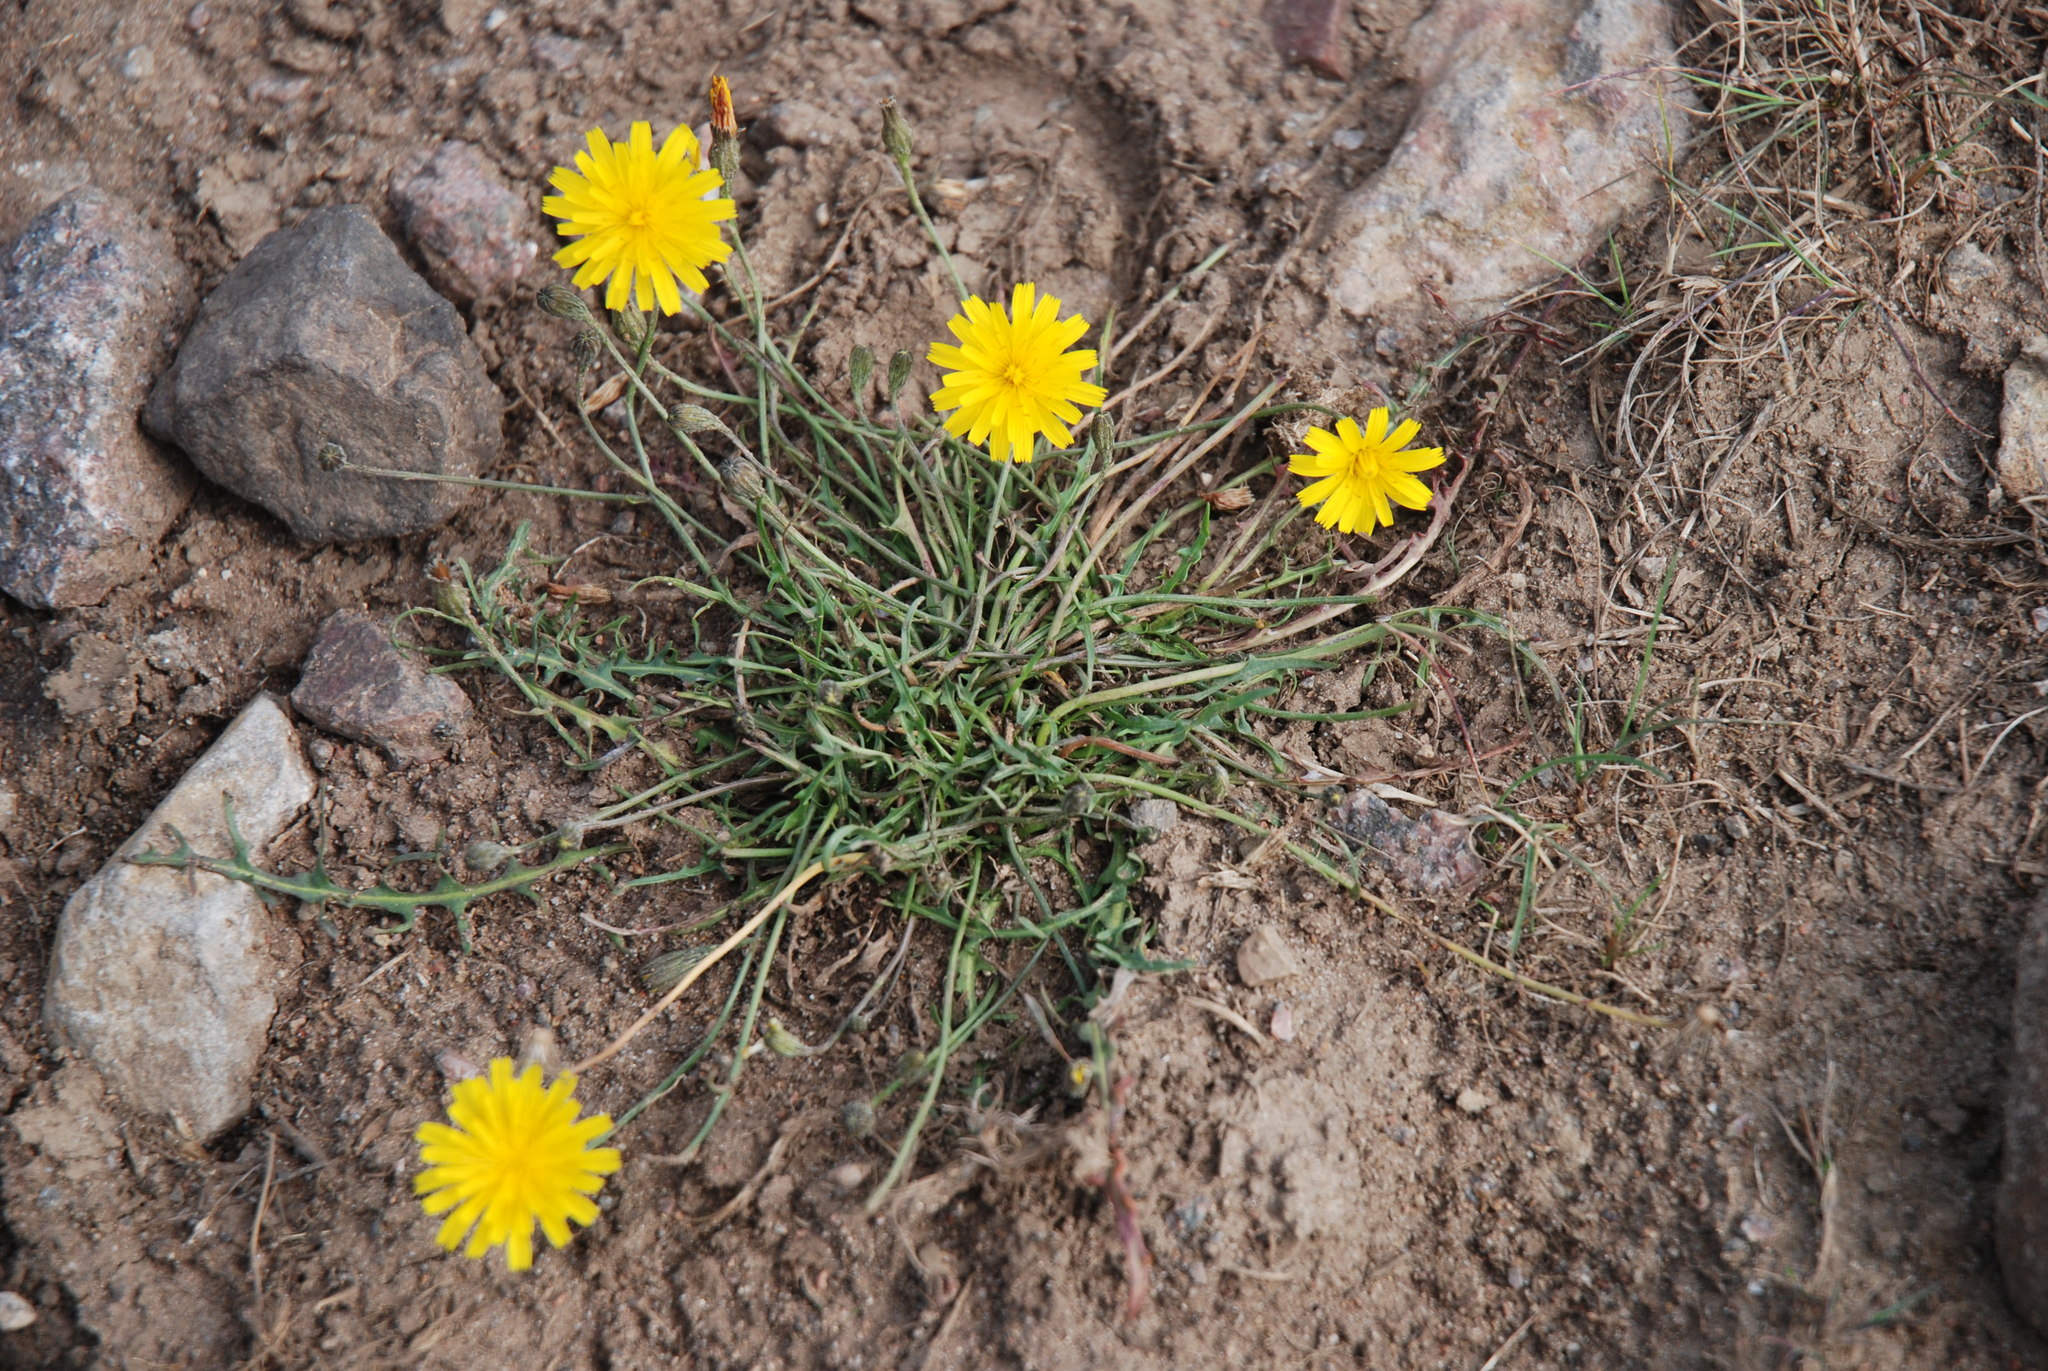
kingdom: Plantae
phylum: Tracheophyta
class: Magnoliopsida
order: Asterales
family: Asteraceae
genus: Scorzoneroides
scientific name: Scorzoneroides autumnalis
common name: Autumn hawkbit
